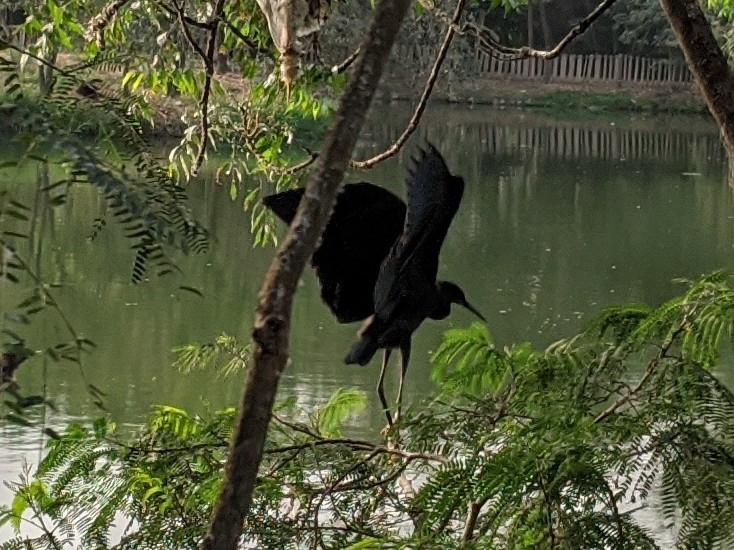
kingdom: Animalia
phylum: Chordata
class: Aves
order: Pelecaniformes
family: Ardeidae
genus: Egretta
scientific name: Egretta ardesiaca
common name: Black heron
